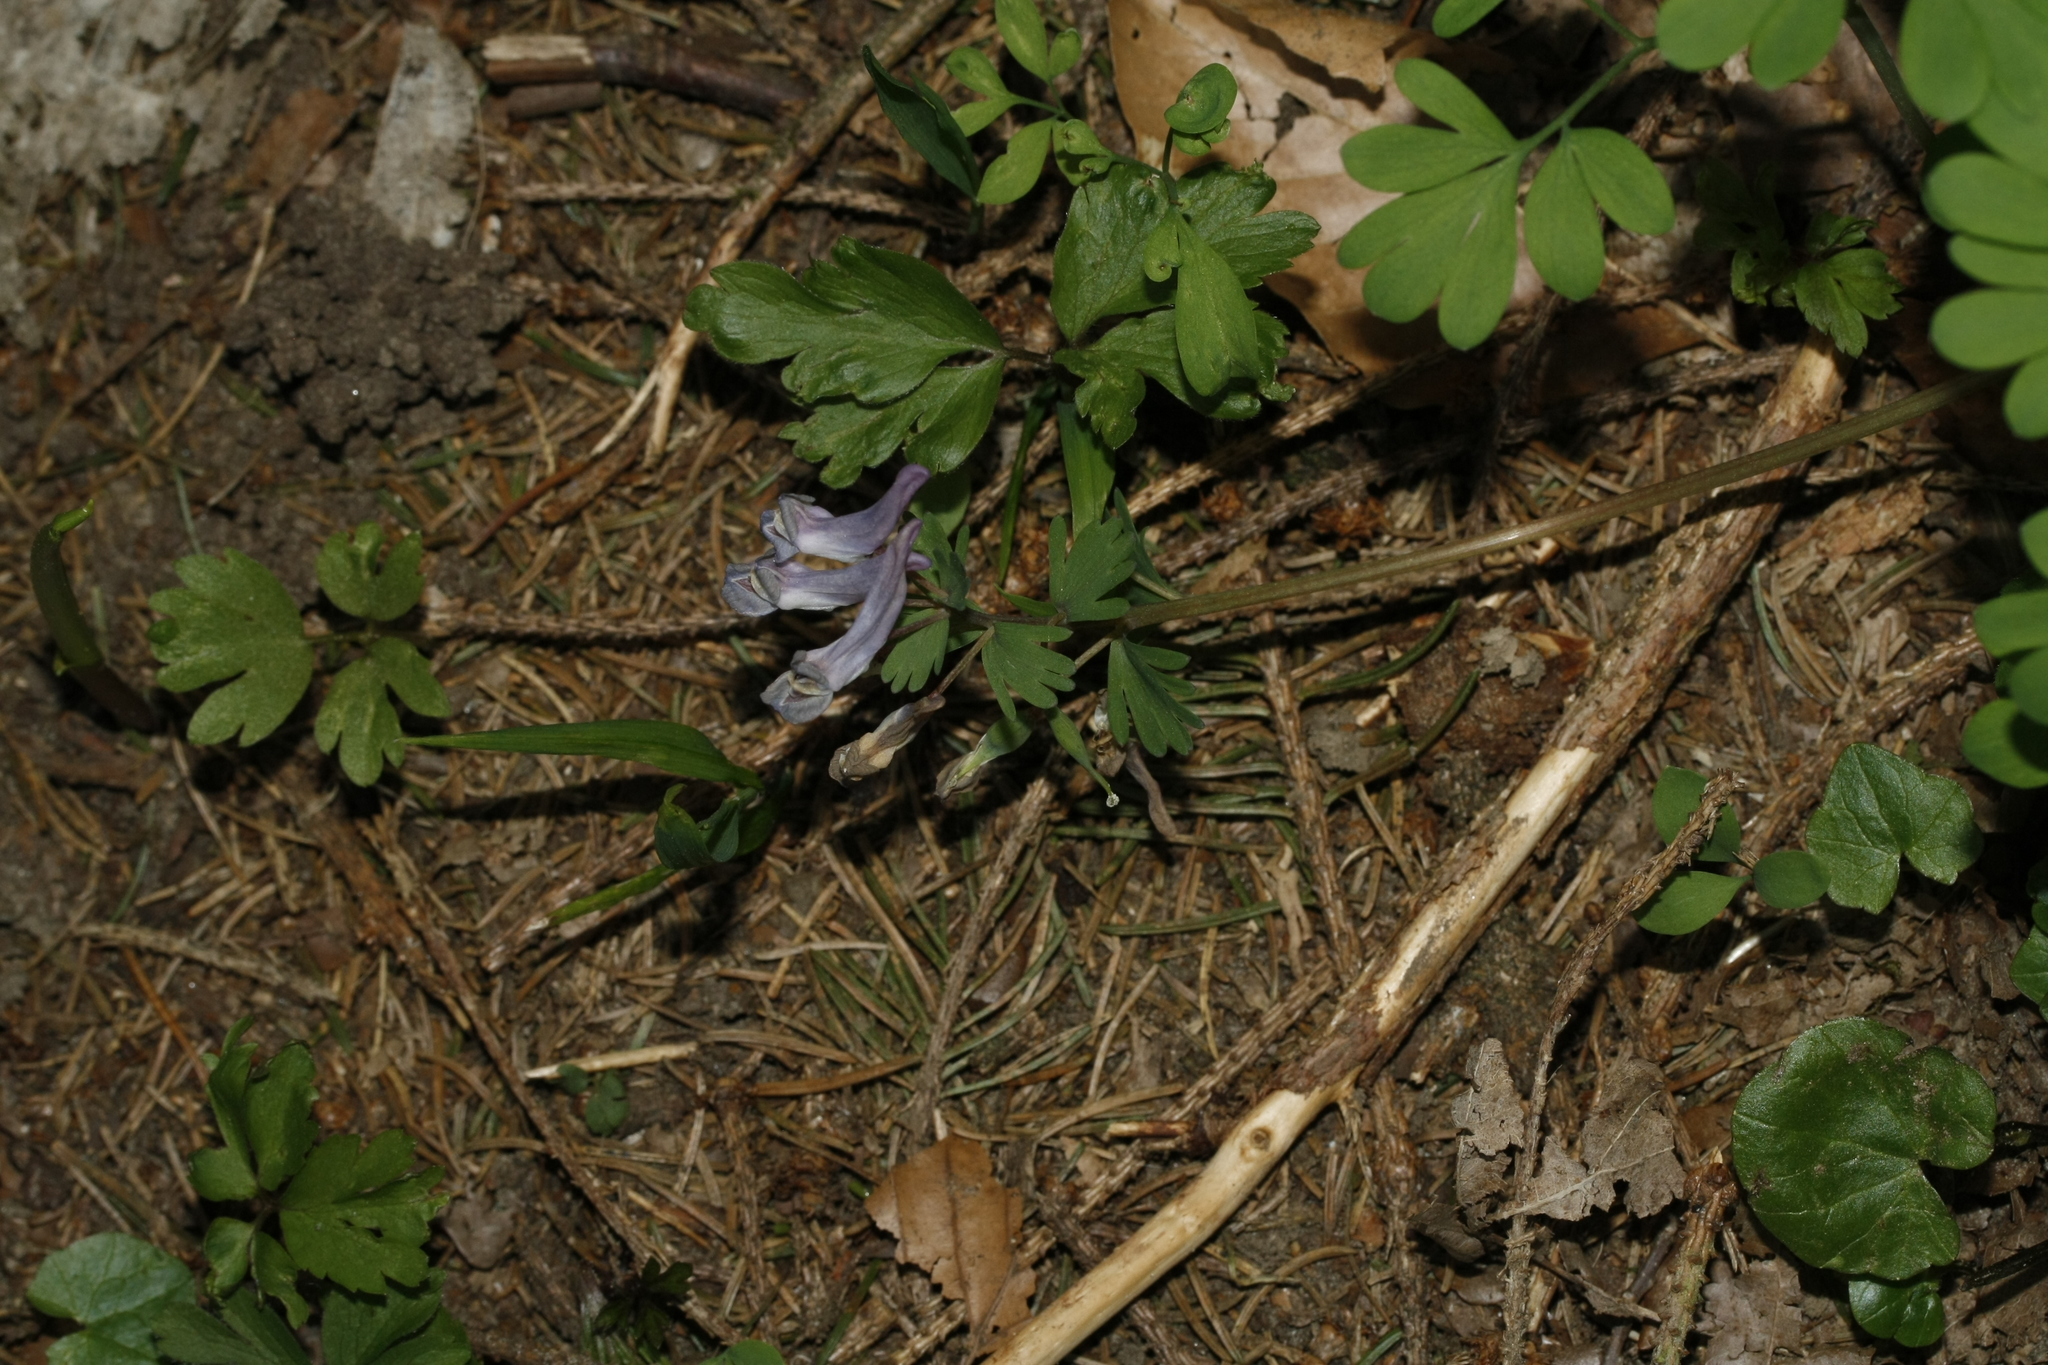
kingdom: Plantae
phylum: Tracheophyta
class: Magnoliopsida
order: Ranunculales
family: Papaveraceae
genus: Corydalis
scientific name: Corydalis solida
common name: Bird-in-a-bush
